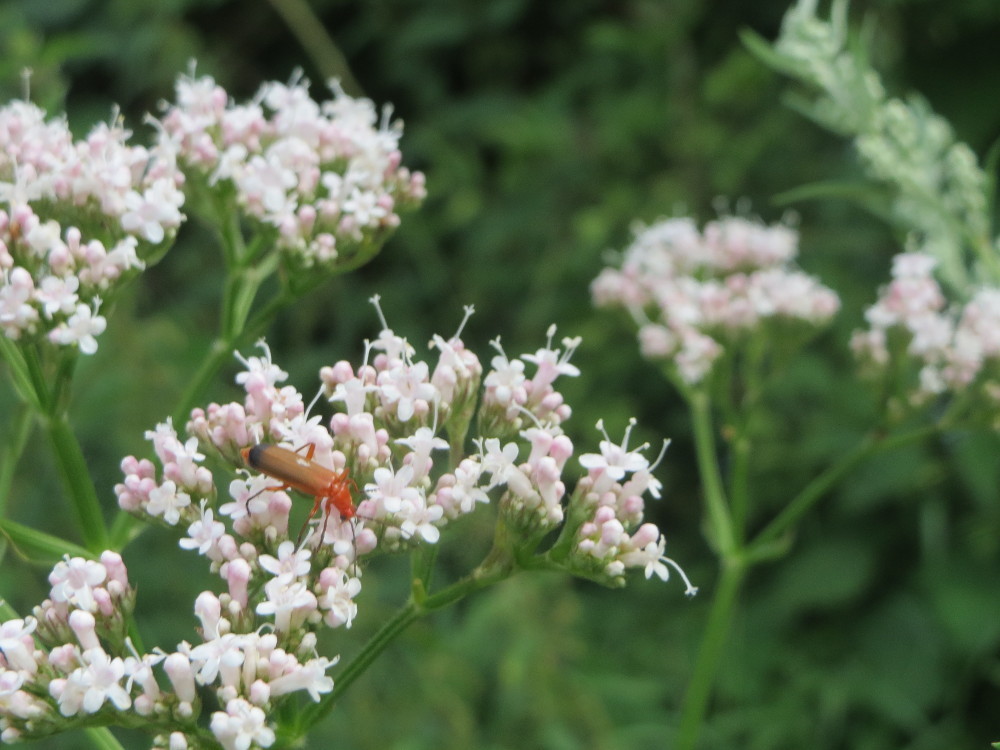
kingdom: Plantae
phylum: Tracheophyta
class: Magnoliopsida
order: Dipsacales
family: Caprifoliaceae
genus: Valeriana
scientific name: Valeriana officinalis
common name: Common valerian
